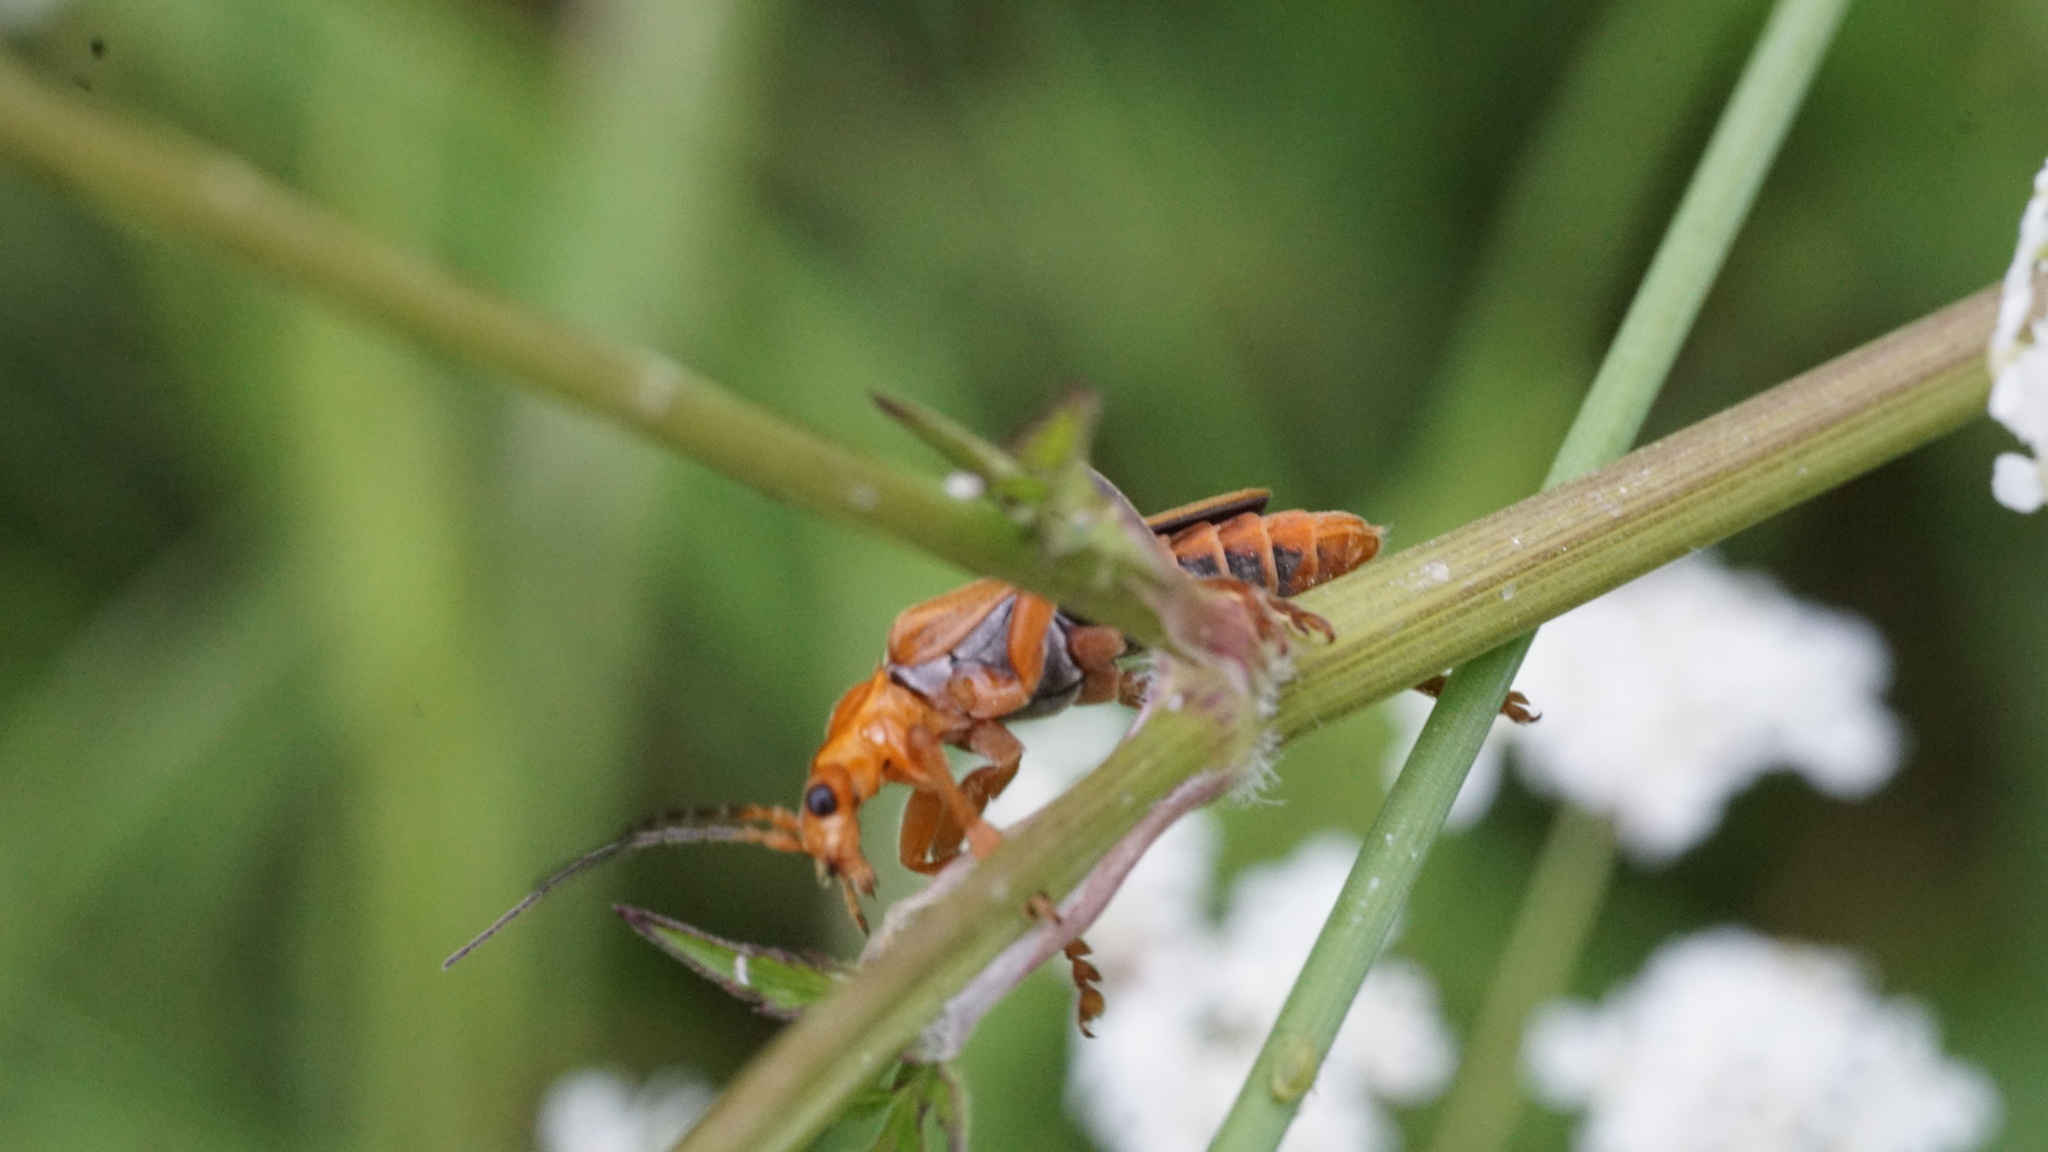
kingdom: Animalia
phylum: Arthropoda
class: Insecta
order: Coleoptera
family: Cantharidae
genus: Cantharis
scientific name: Cantharis livida
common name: Livid soldier beetle
